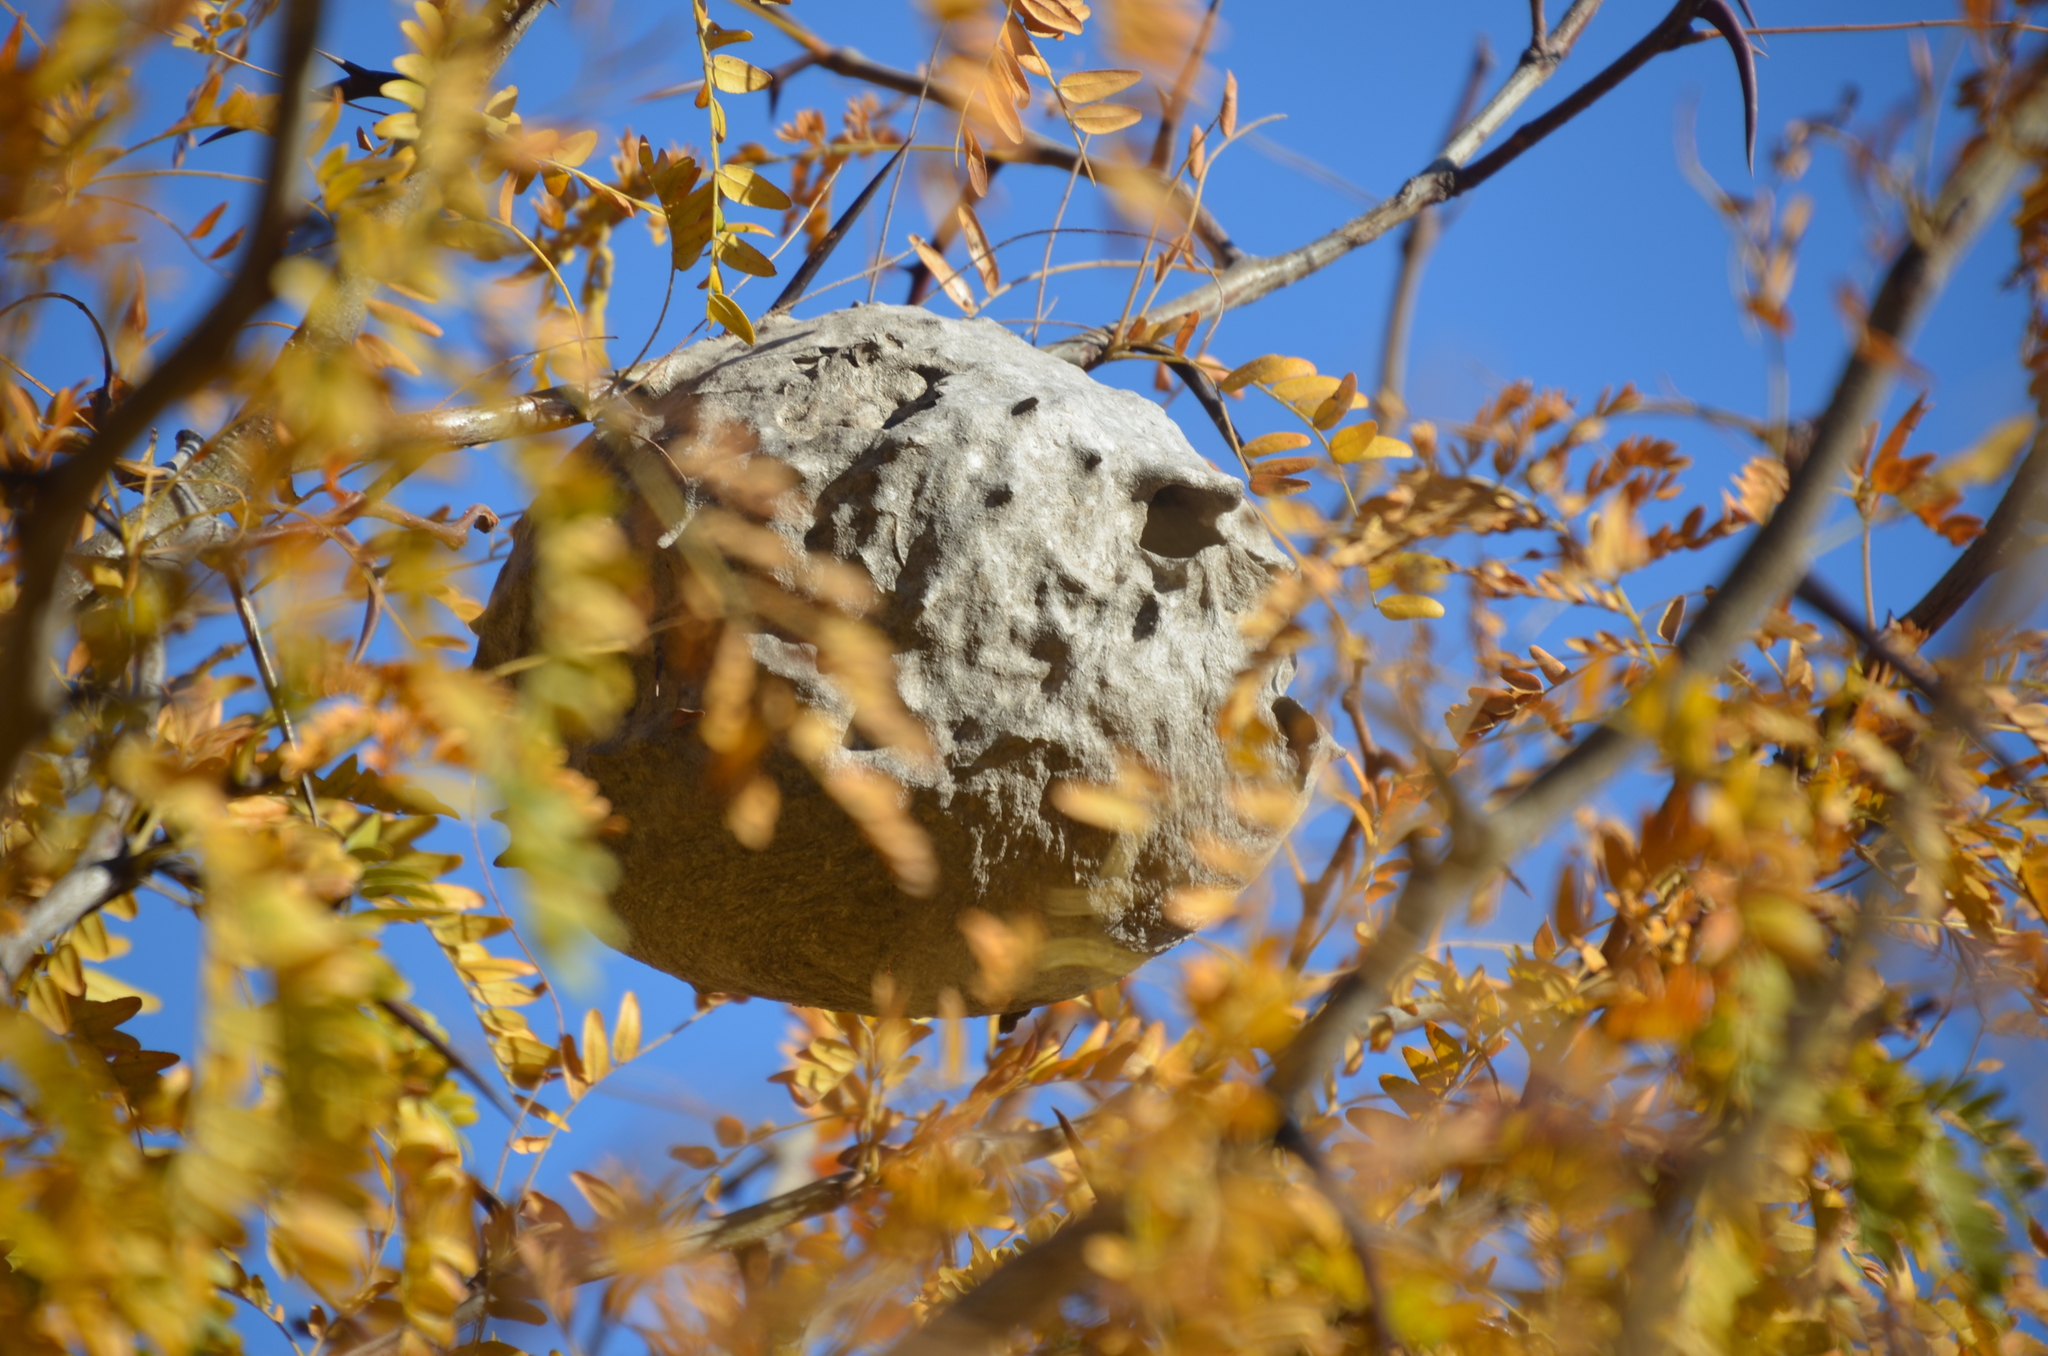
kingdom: Animalia
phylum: Arthropoda
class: Insecta
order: Hymenoptera
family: Eumenidae
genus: Polybia
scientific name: Polybia scutellaris
